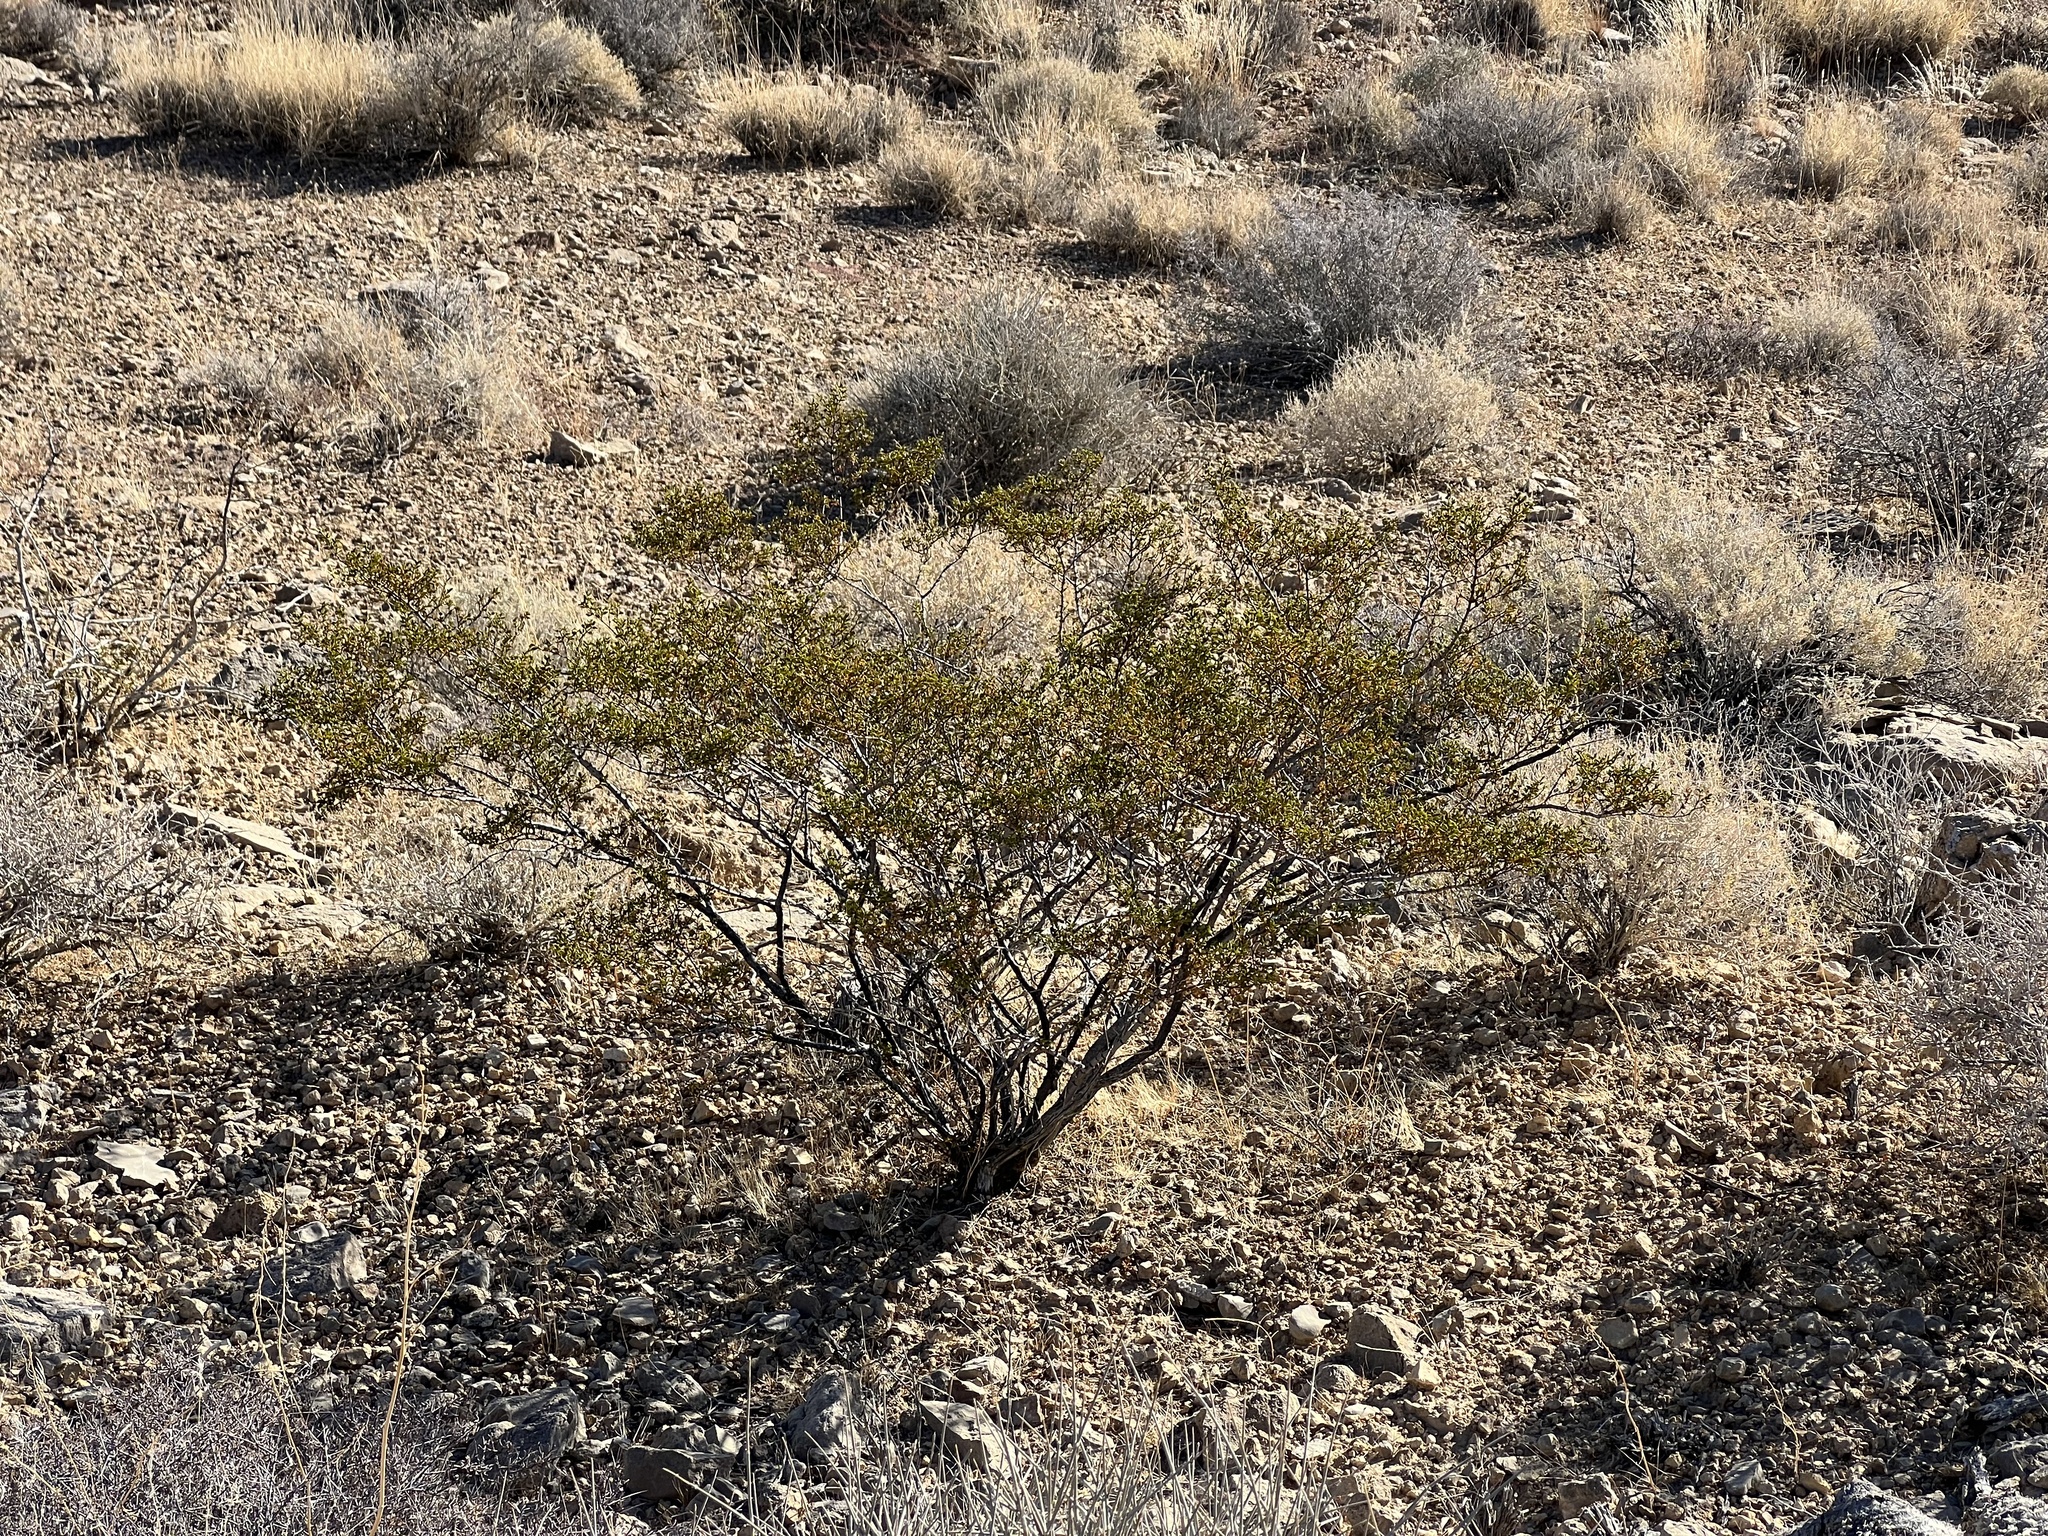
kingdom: Plantae
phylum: Tracheophyta
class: Magnoliopsida
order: Zygophyllales
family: Zygophyllaceae
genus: Larrea
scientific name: Larrea tridentata
